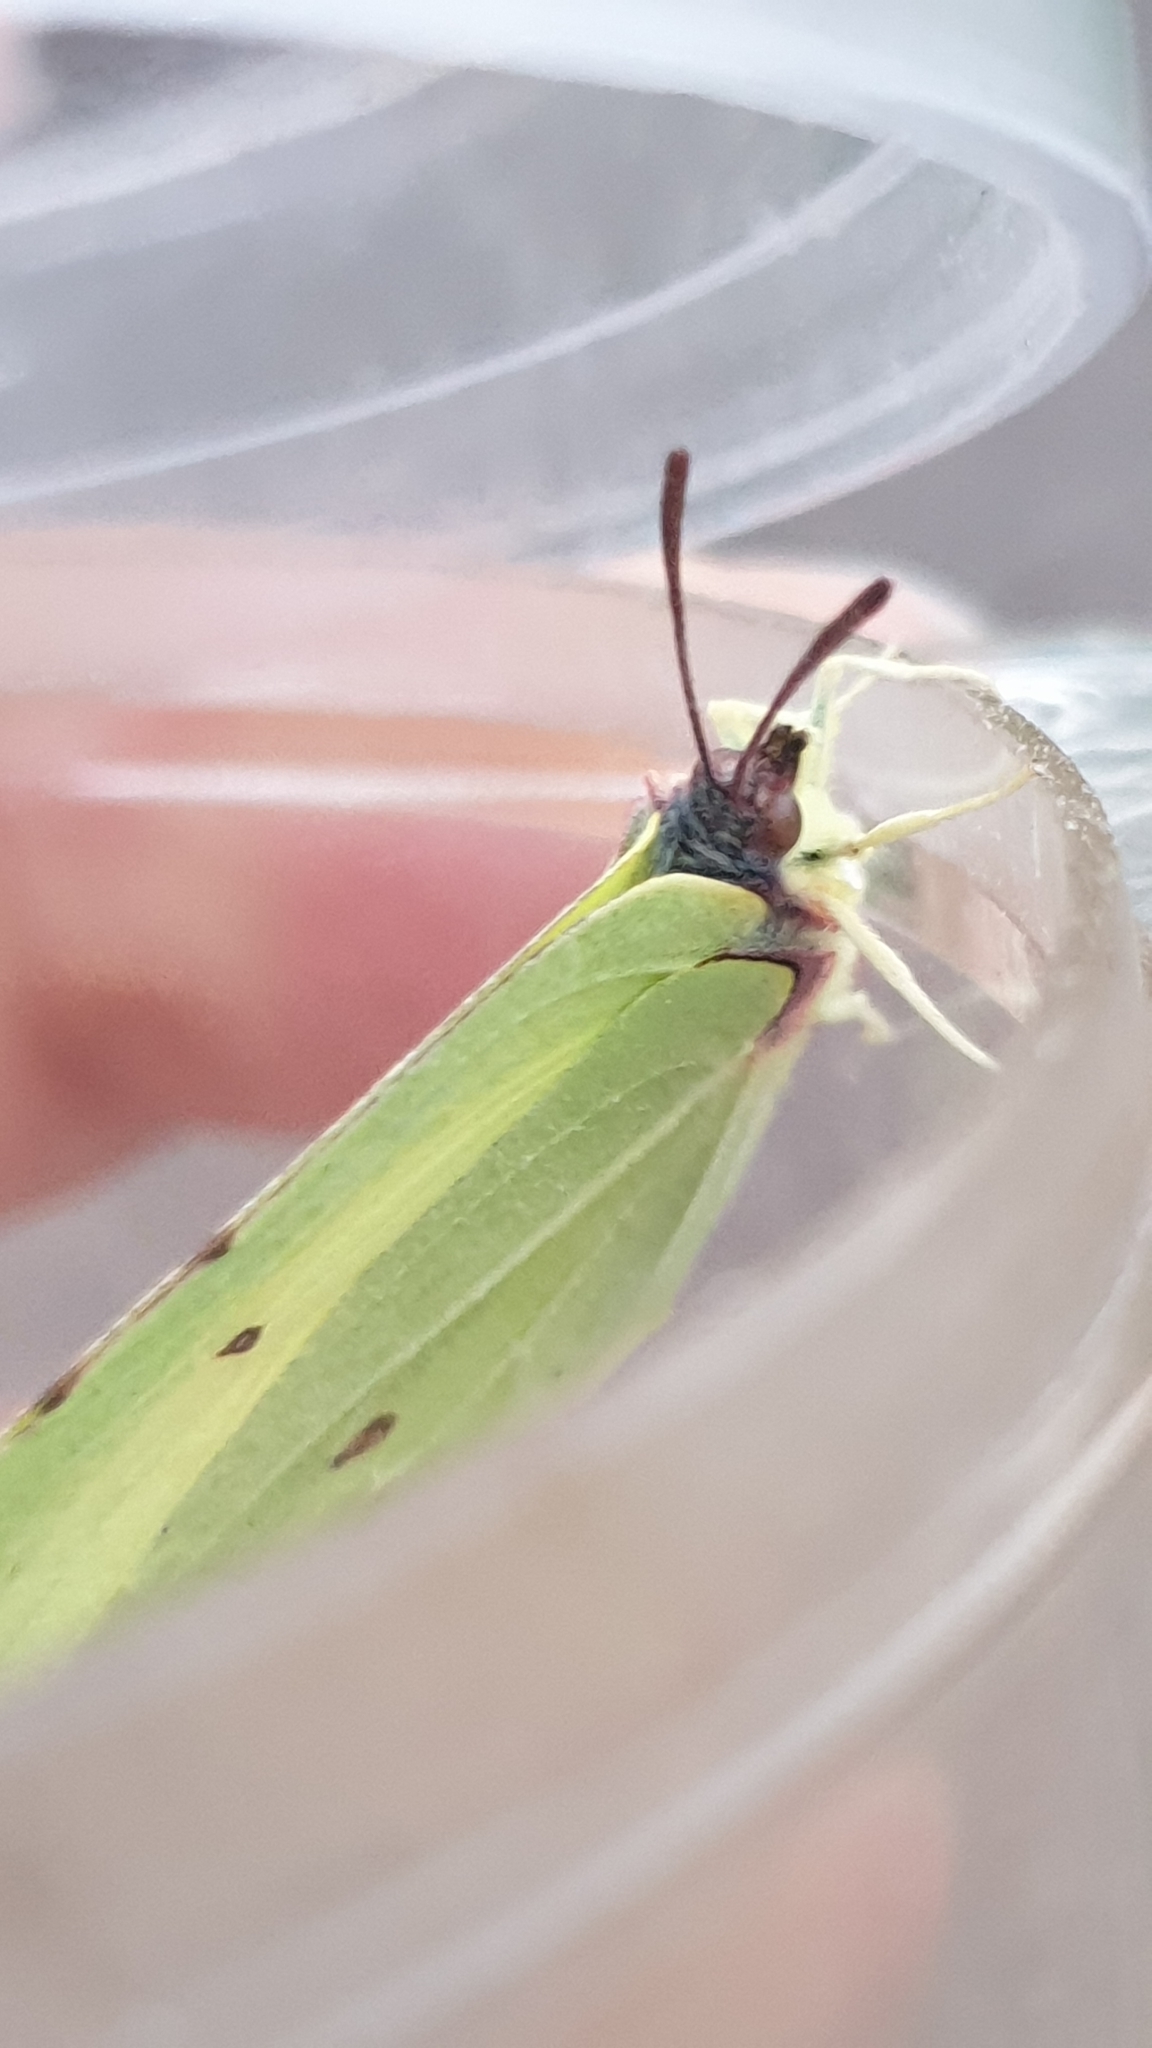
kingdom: Animalia
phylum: Arthropoda
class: Insecta
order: Lepidoptera
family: Pieridae
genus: Gonepteryx
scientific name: Gonepteryx rhamni
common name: Brimstone
